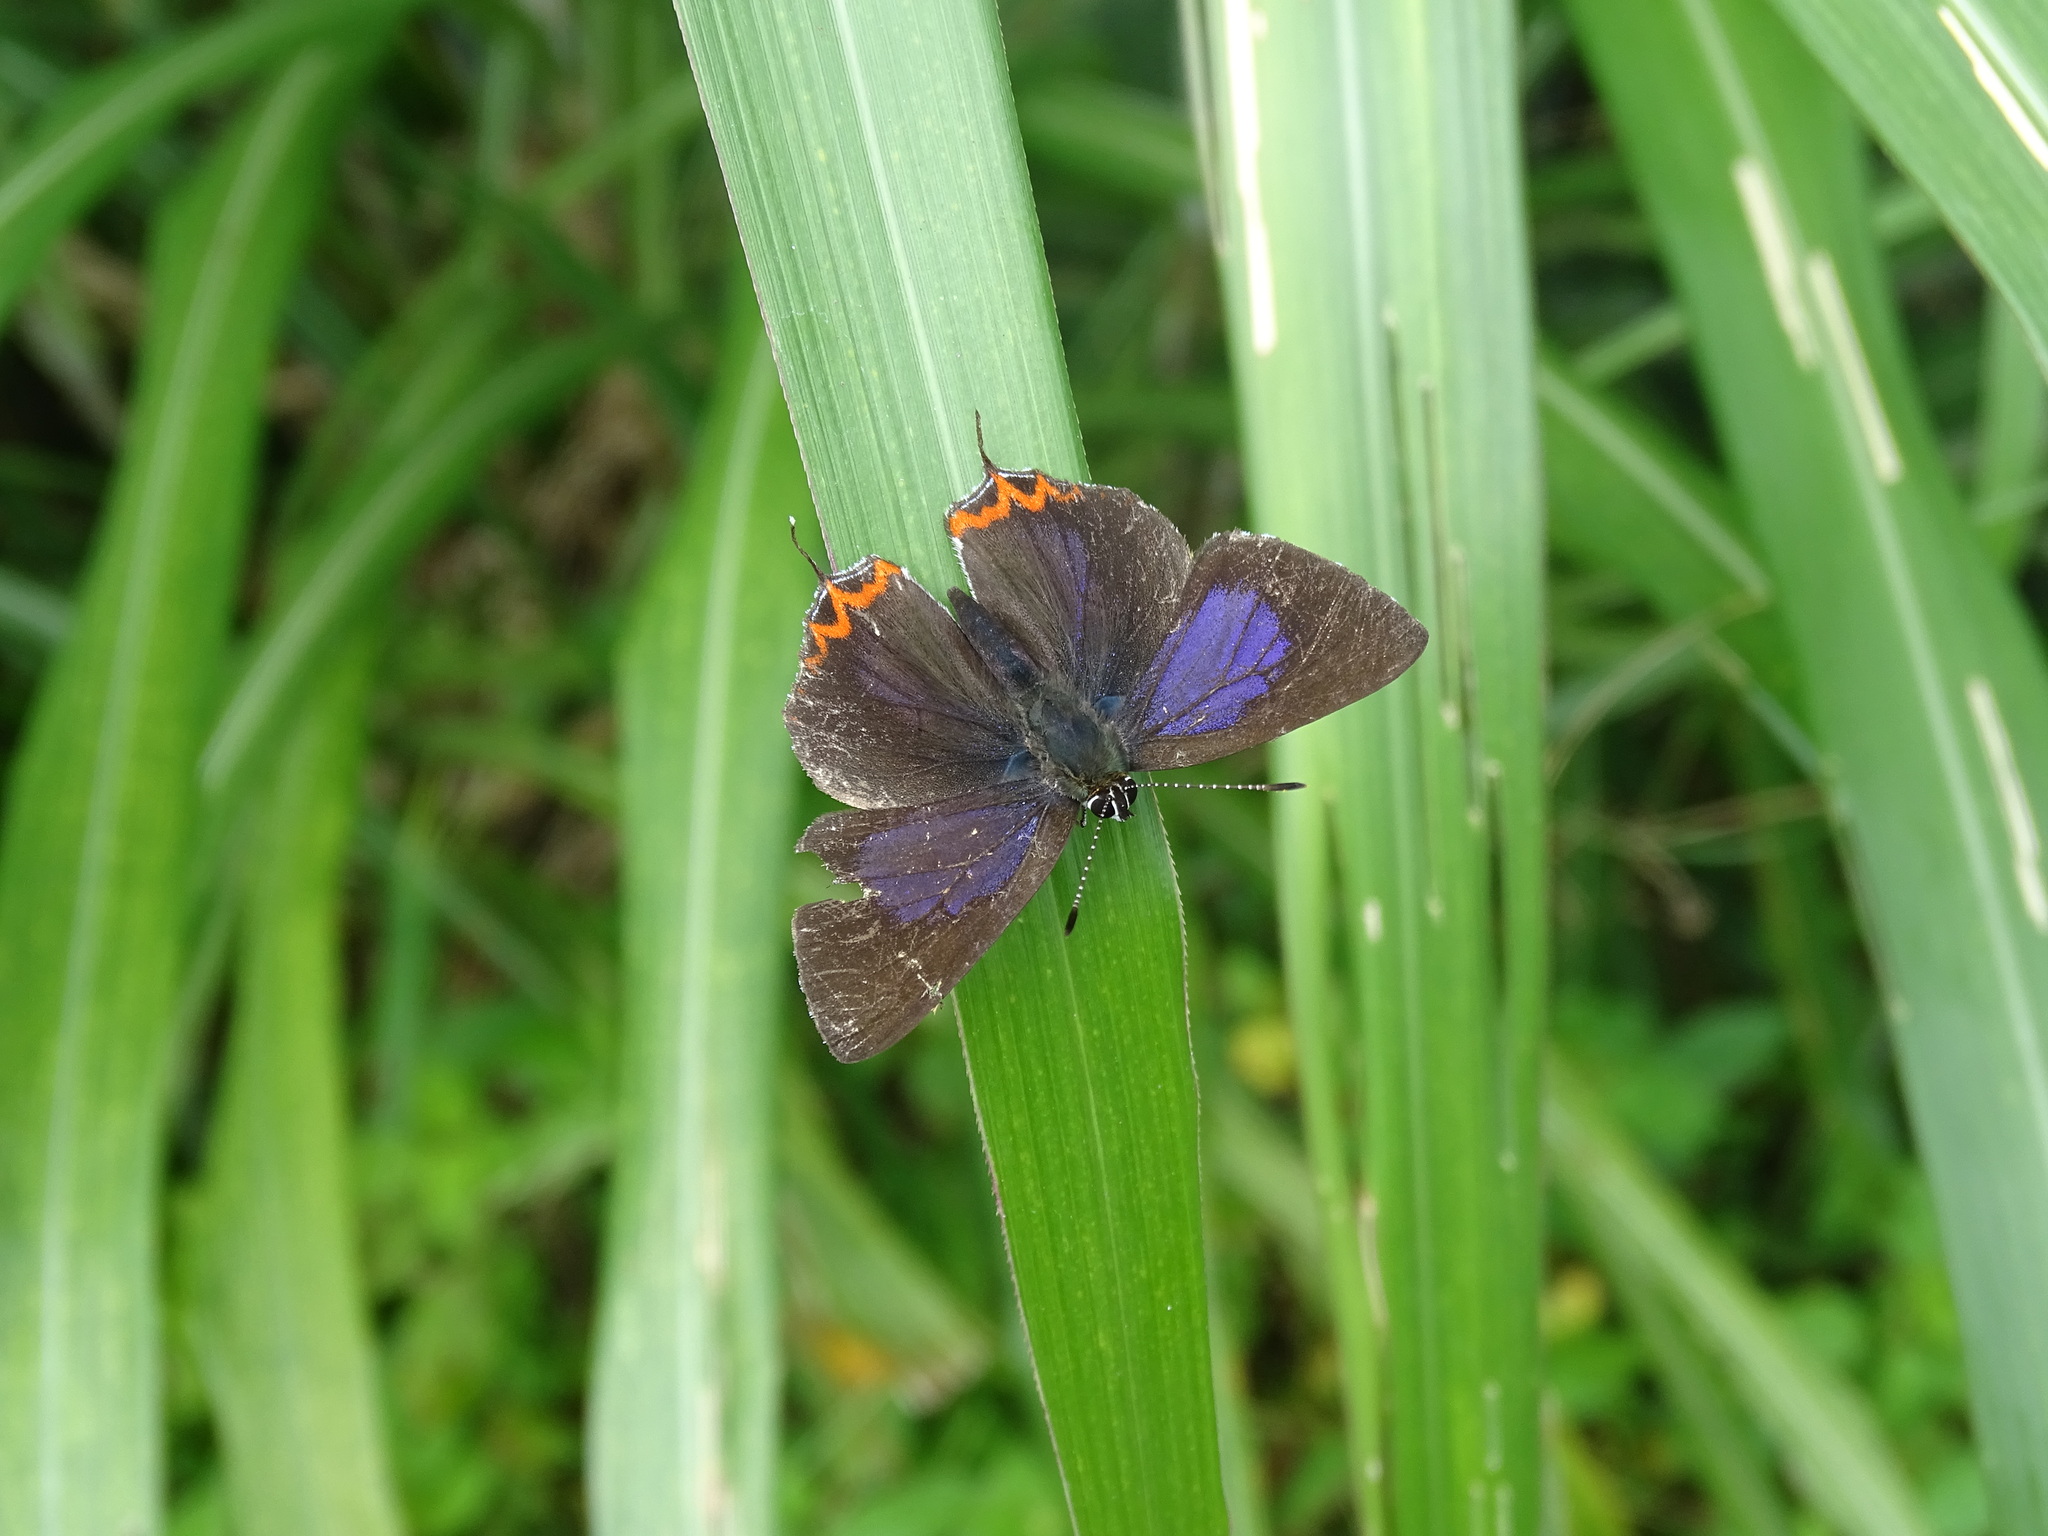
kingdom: Animalia
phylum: Arthropoda
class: Insecta
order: Lepidoptera
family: Lycaenidae
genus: Heliophorus
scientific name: Heliophorus ila
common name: Restricted purple sapphire
